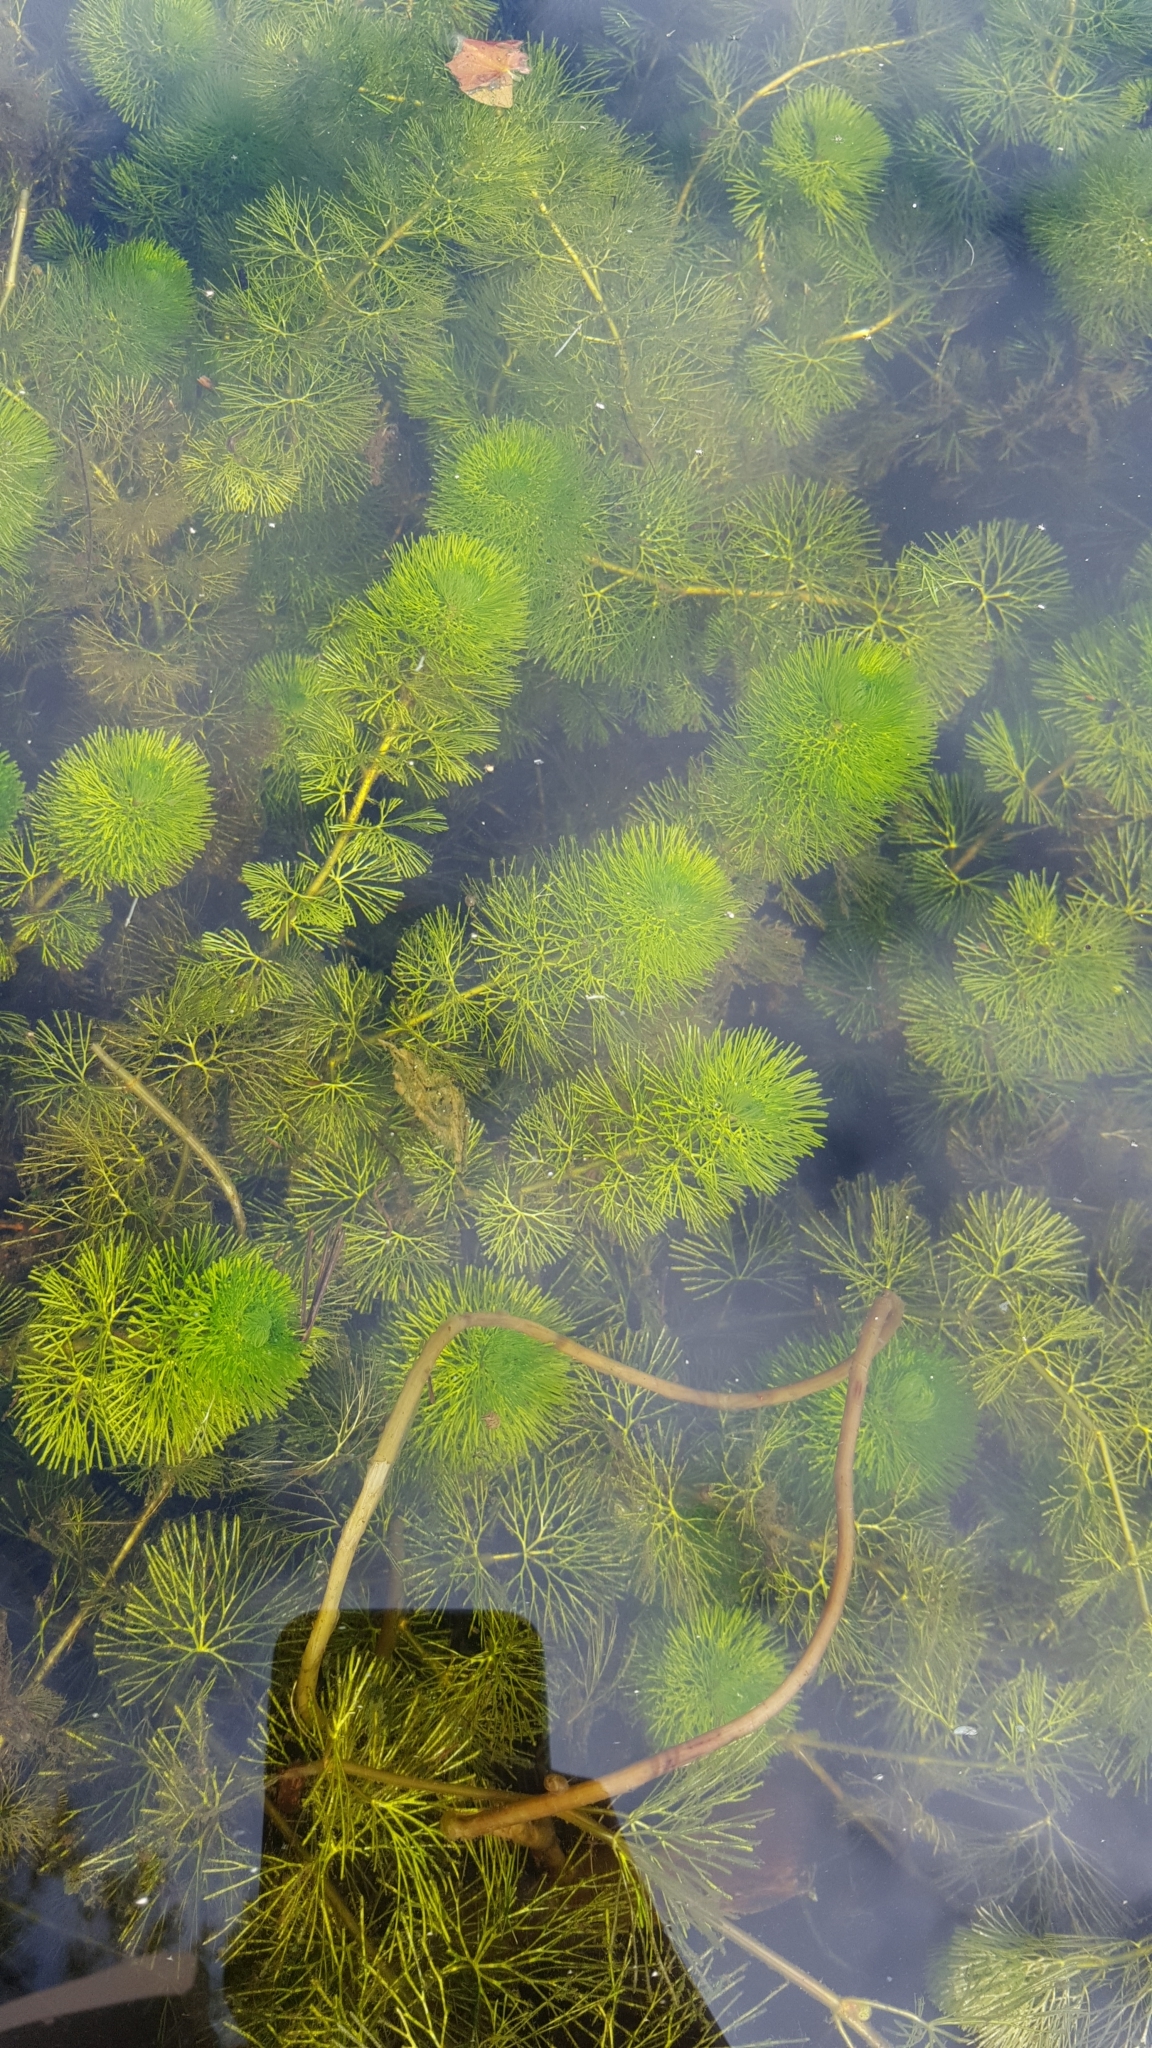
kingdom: Plantae
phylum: Tracheophyta
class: Magnoliopsida
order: Nymphaeales
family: Cabombaceae
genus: Cabomba
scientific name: Cabomba caroliniana
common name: Fanwort
